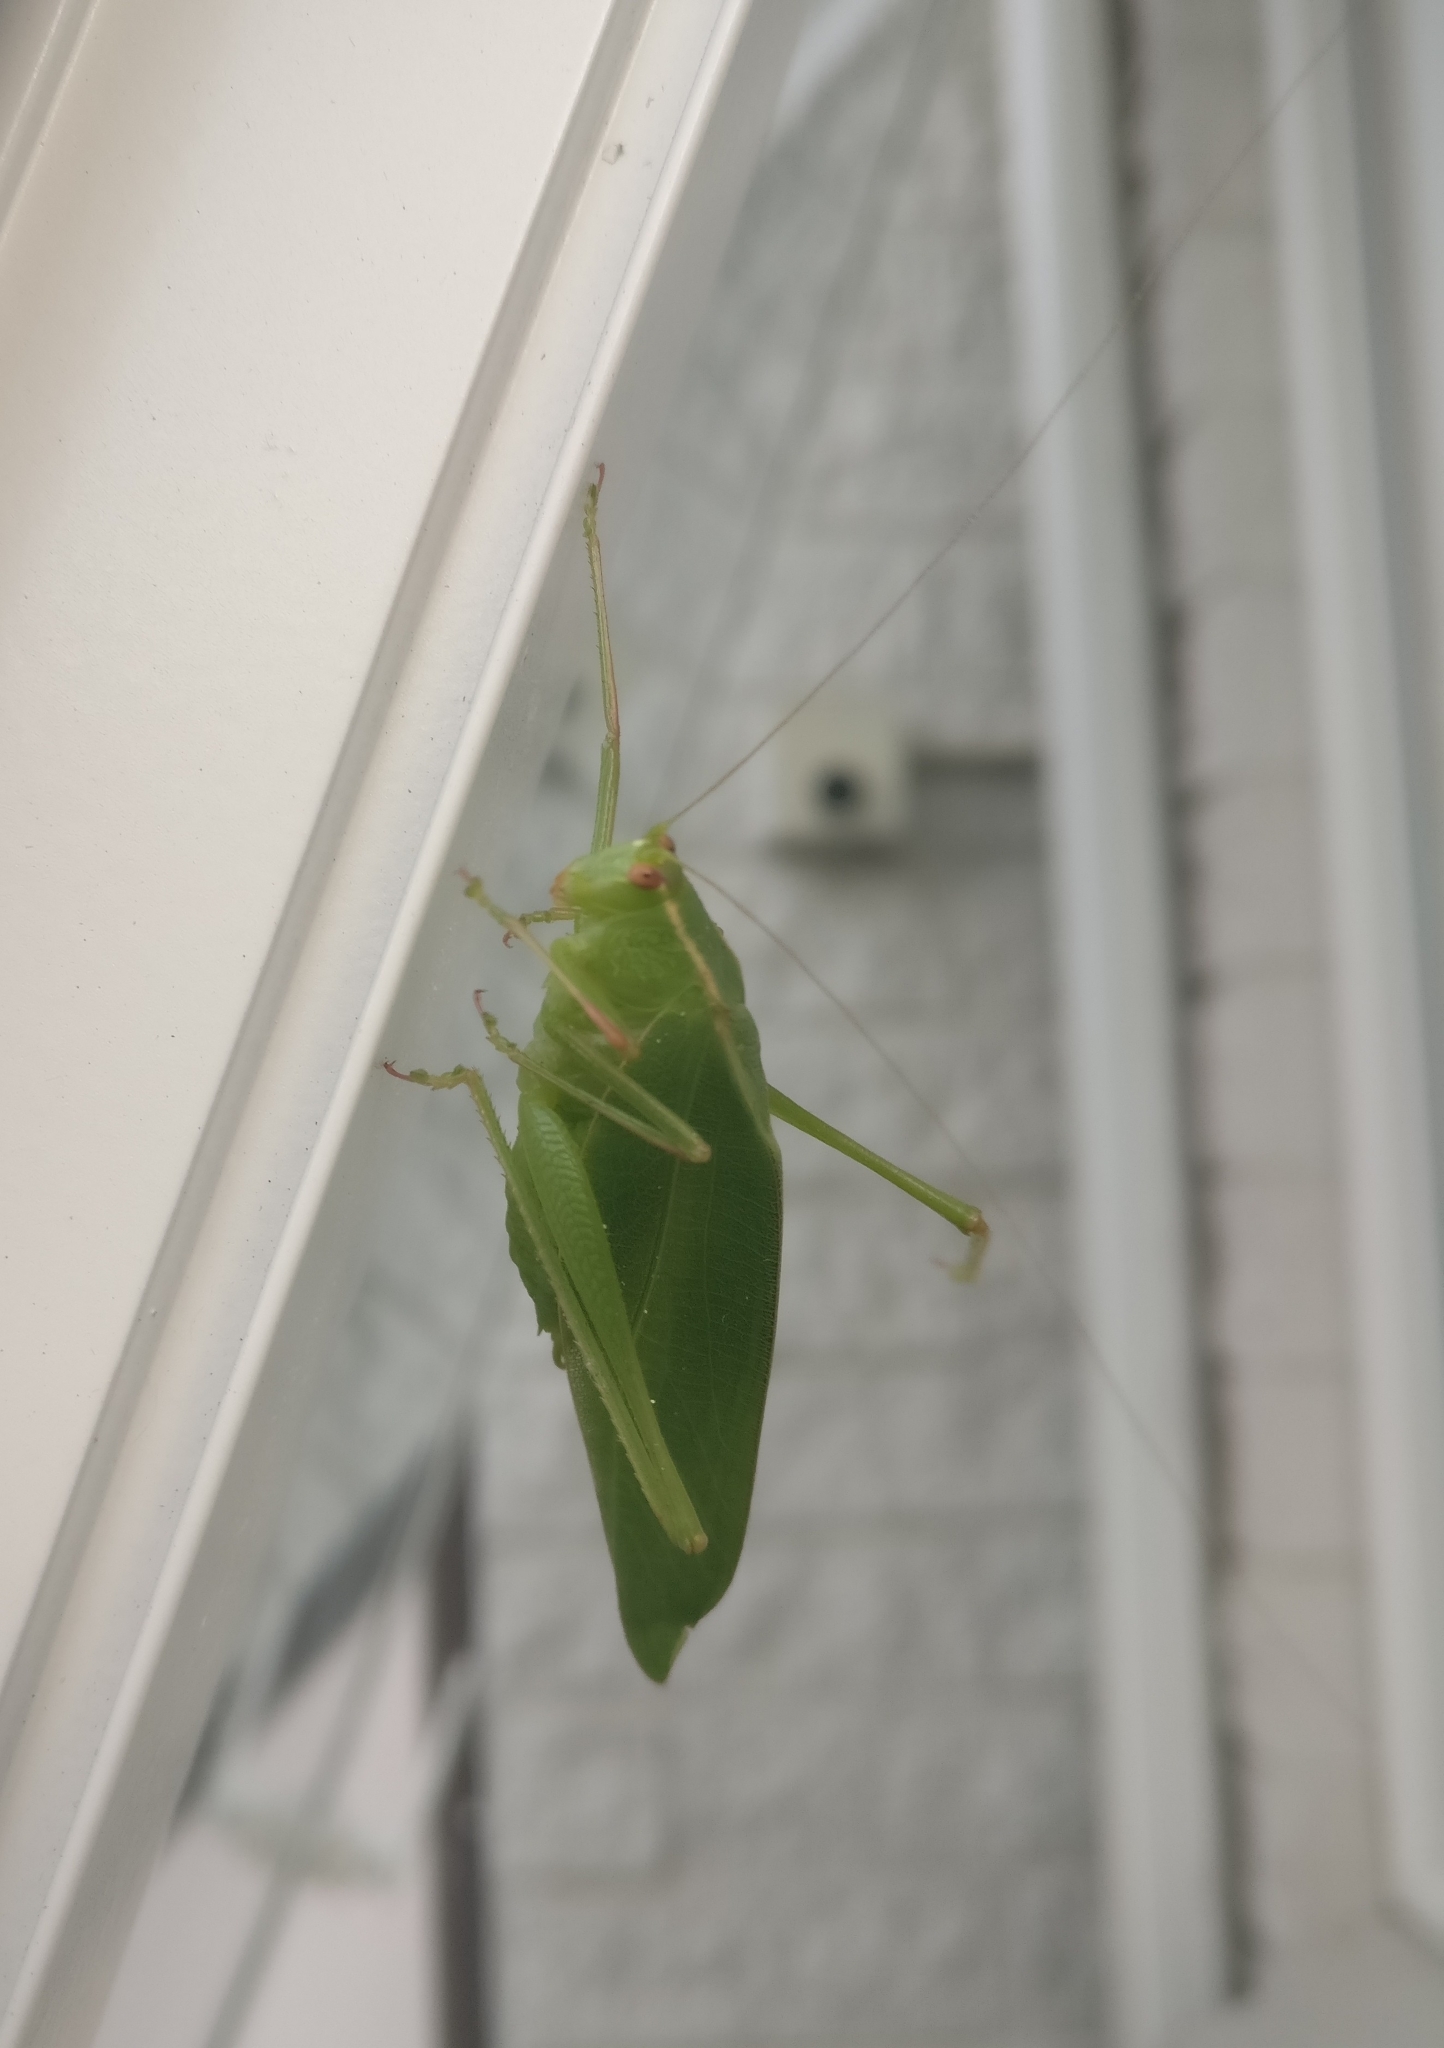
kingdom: Animalia
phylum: Arthropoda
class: Insecta
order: Orthoptera
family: Tettigoniidae
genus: Caedicia
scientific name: Caedicia simplex
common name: Common garden katydid
